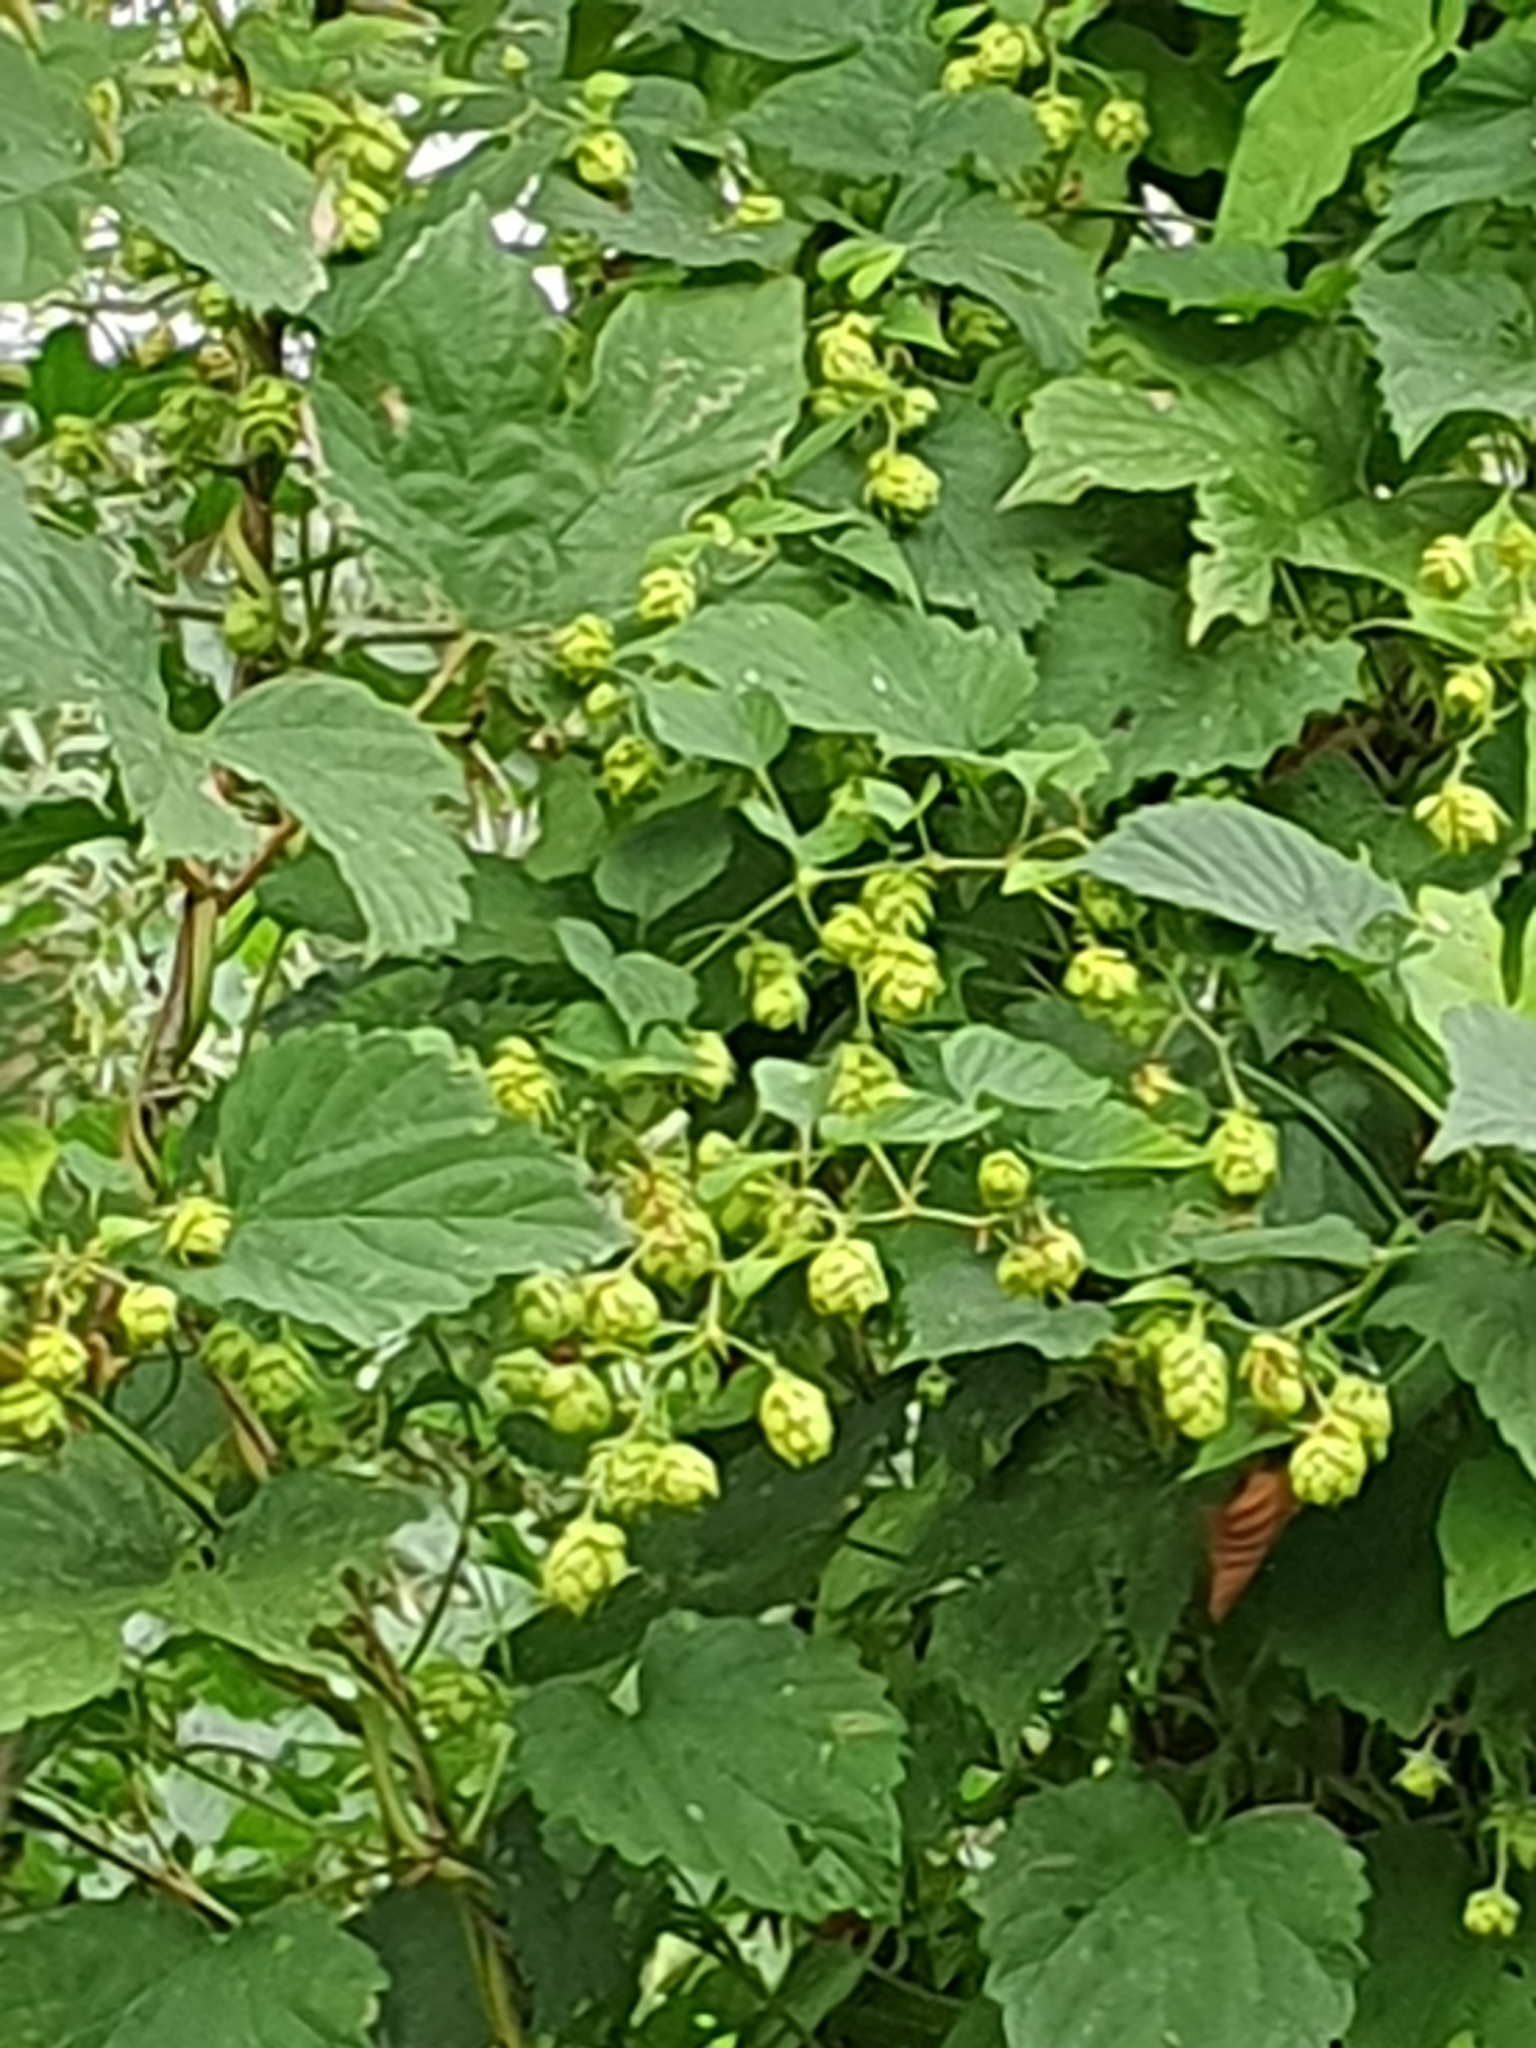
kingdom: Plantae
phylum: Tracheophyta
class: Magnoliopsida
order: Rosales
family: Cannabaceae
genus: Humulus
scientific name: Humulus lupulus
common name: Hop
